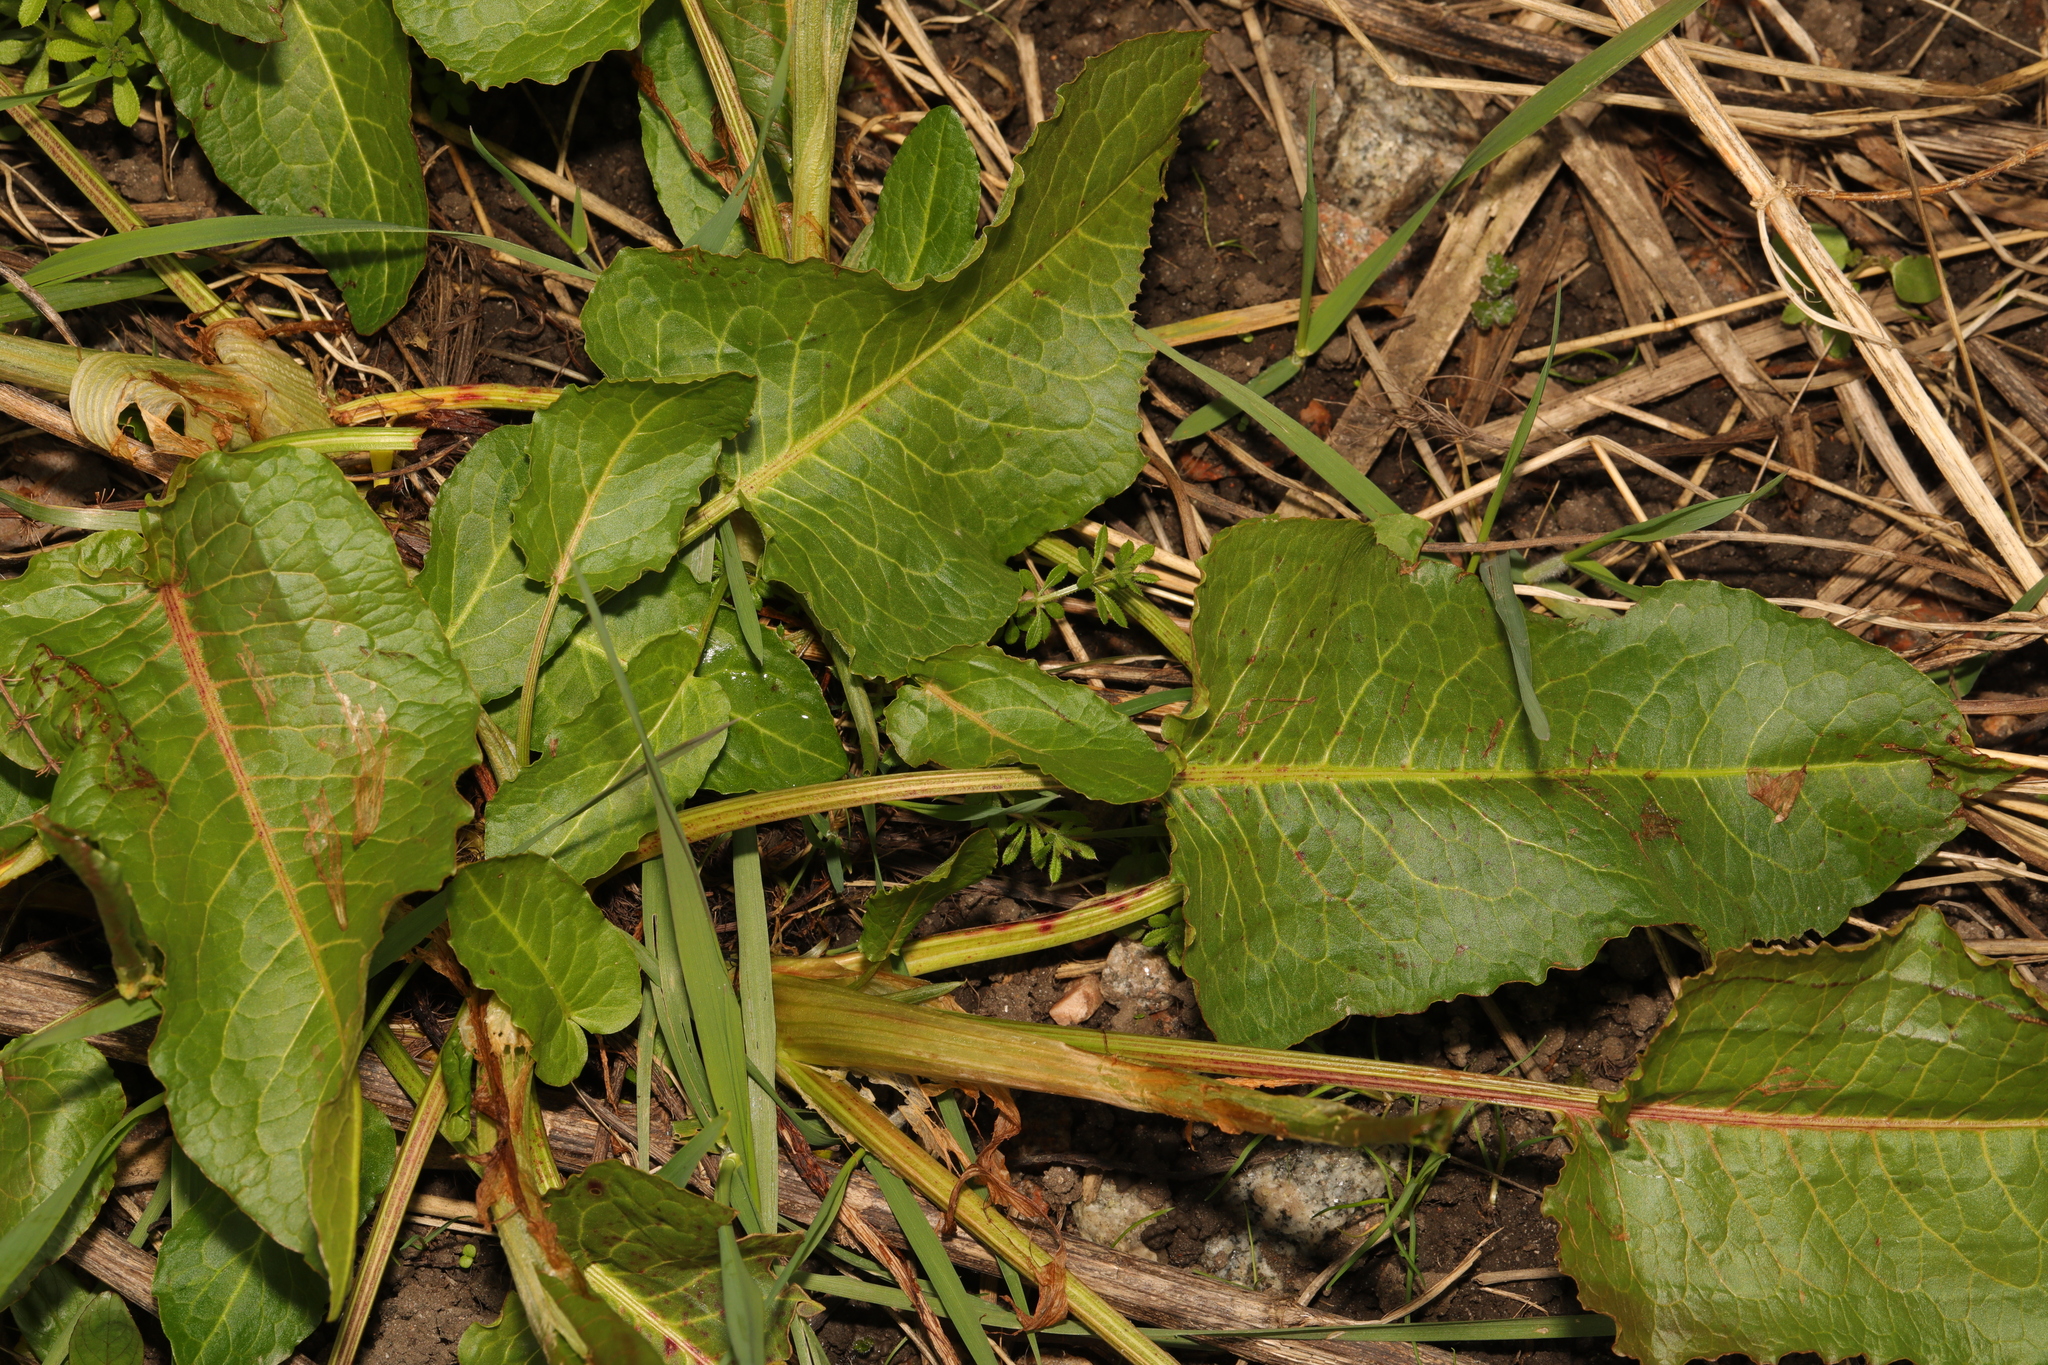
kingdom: Plantae
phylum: Tracheophyta
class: Magnoliopsida
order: Caryophyllales
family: Polygonaceae
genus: Rumex
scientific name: Rumex obtusifolius
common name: Bitter dock
